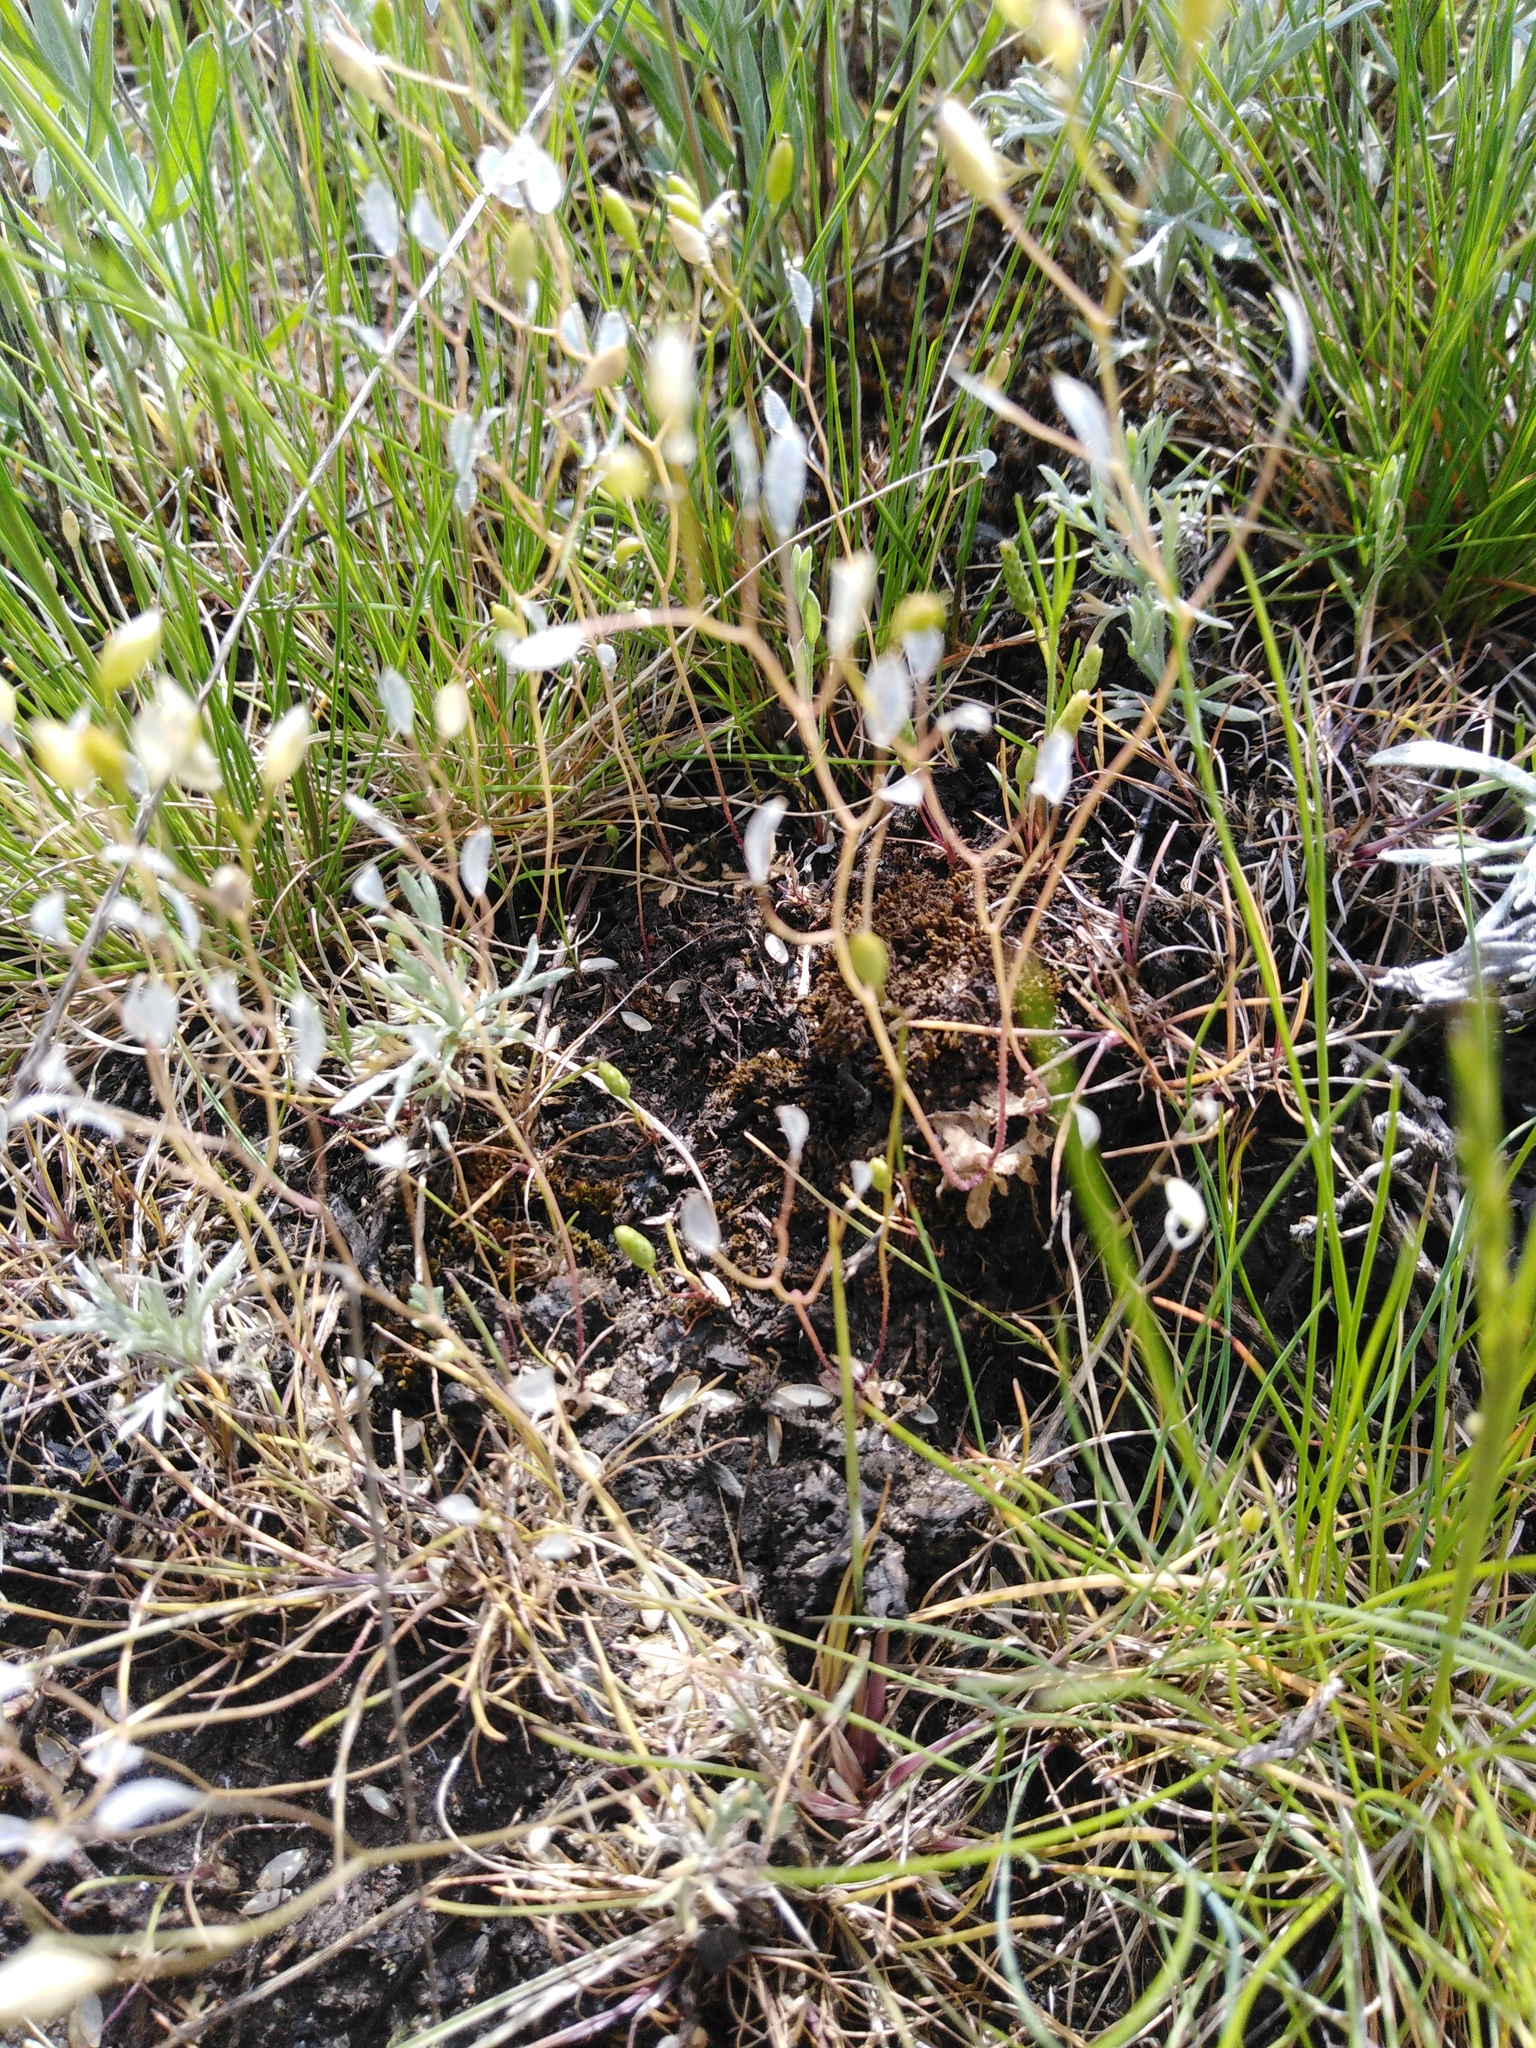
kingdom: Plantae
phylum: Tracheophyta
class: Magnoliopsida
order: Brassicales
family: Brassicaceae
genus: Draba
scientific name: Draba verna
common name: Spring draba
